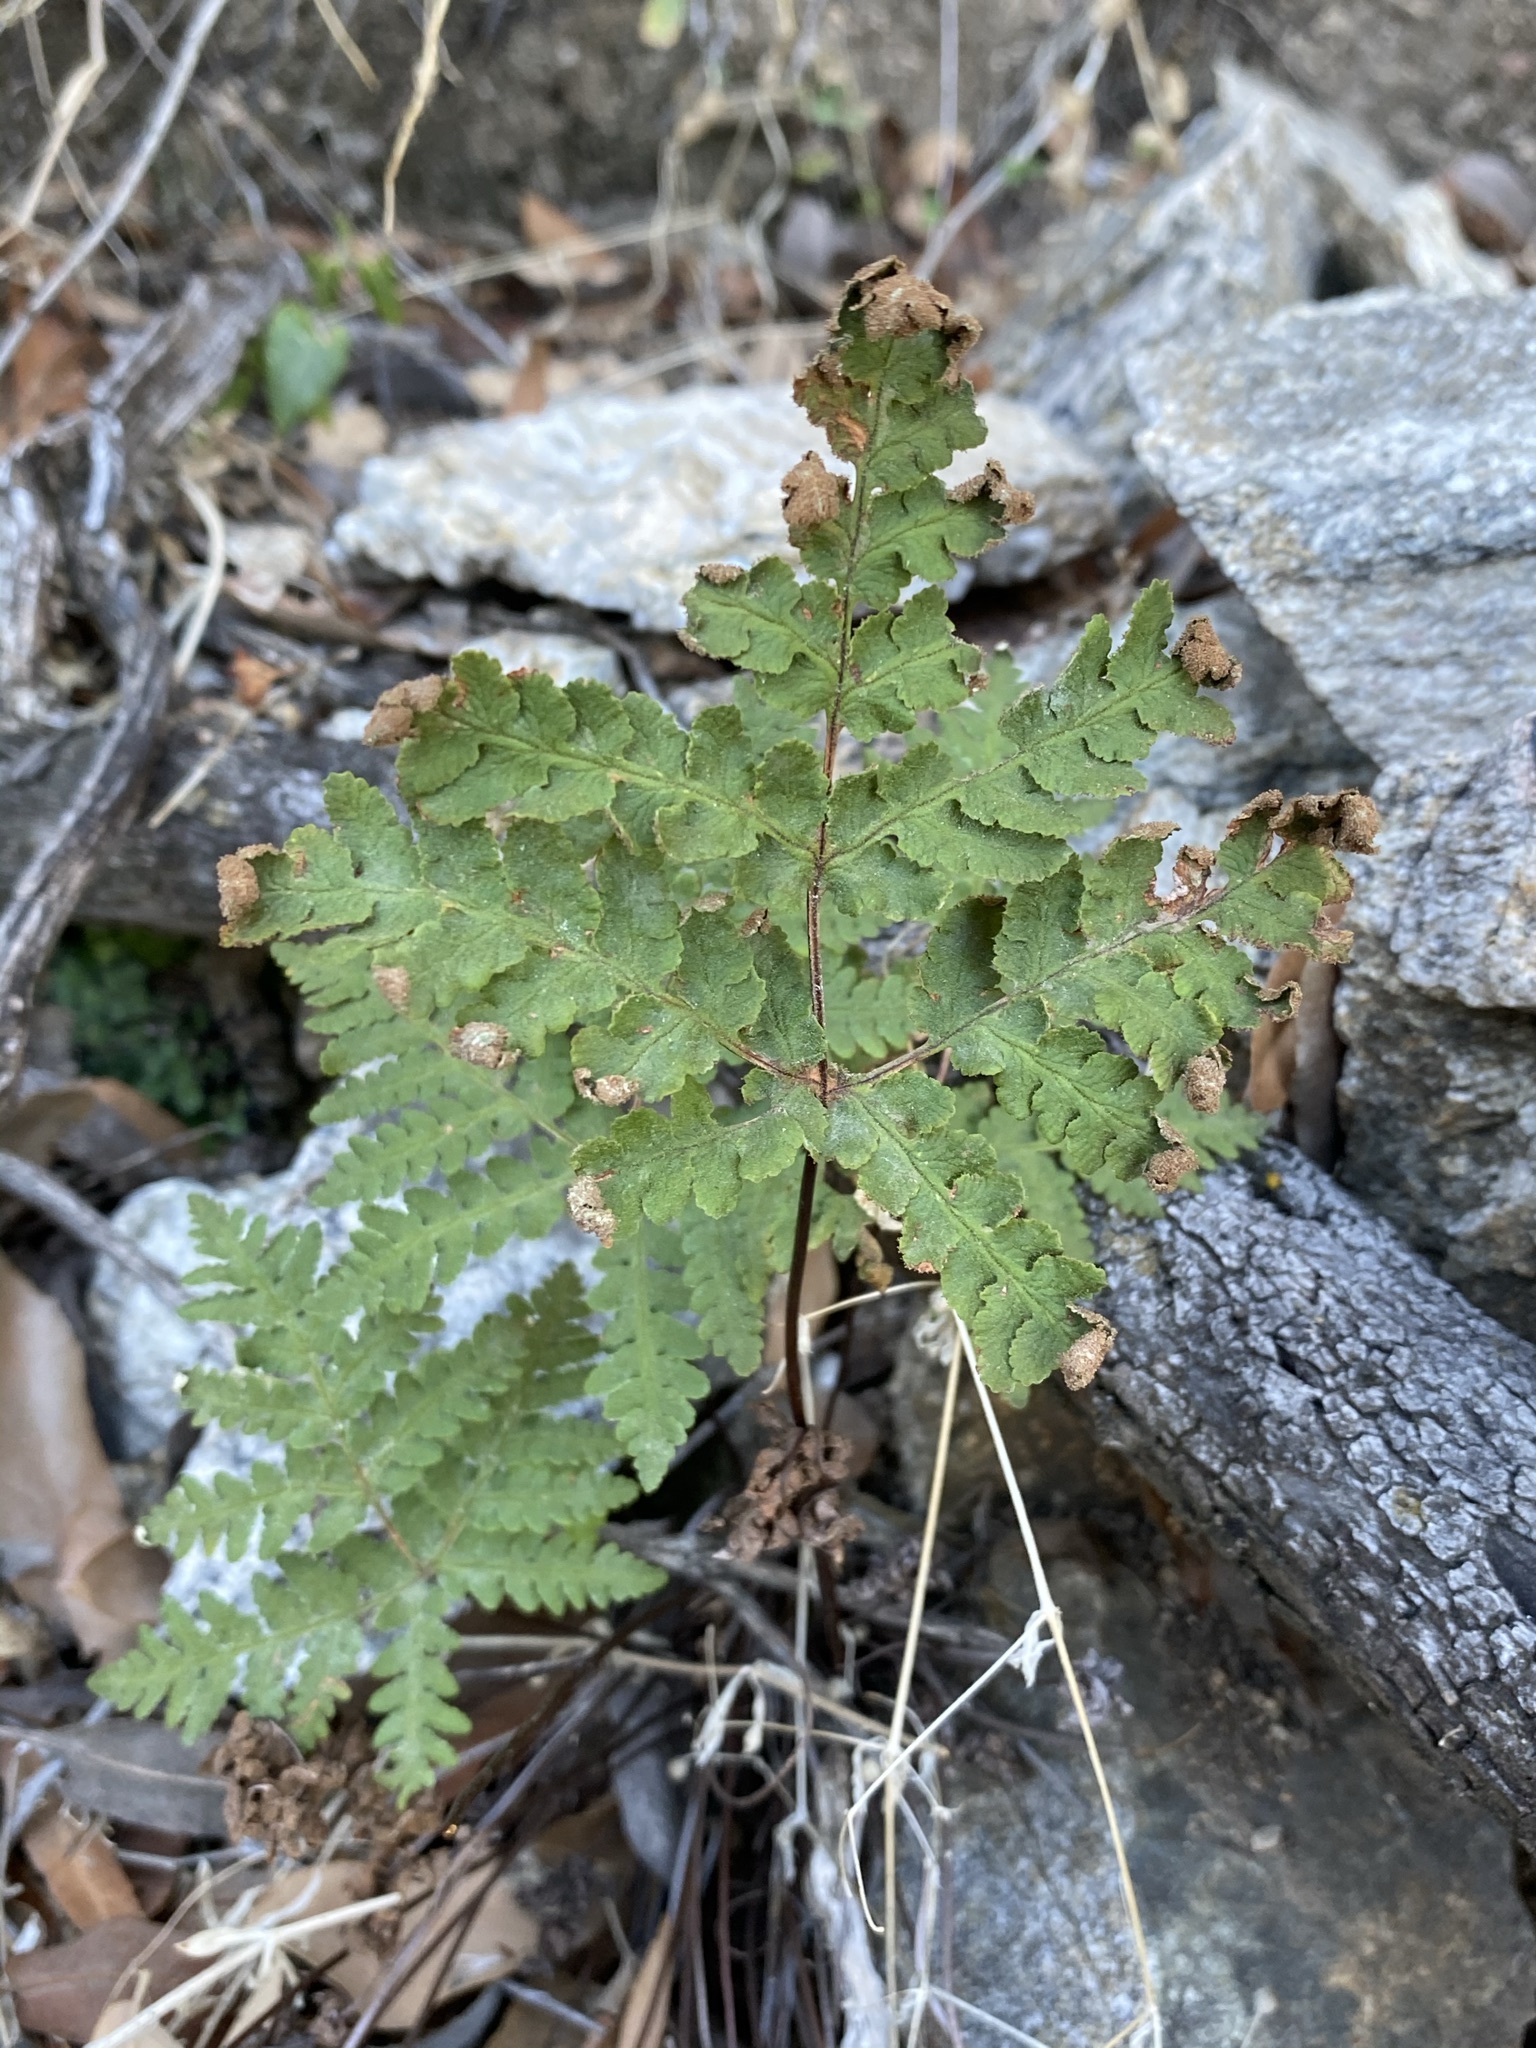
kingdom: Plantae
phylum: Tracheophyta
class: Polypodiopsida
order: Polypodiales
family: Pteridaceae
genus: Pentagramma
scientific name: Pentagramma maxonii
